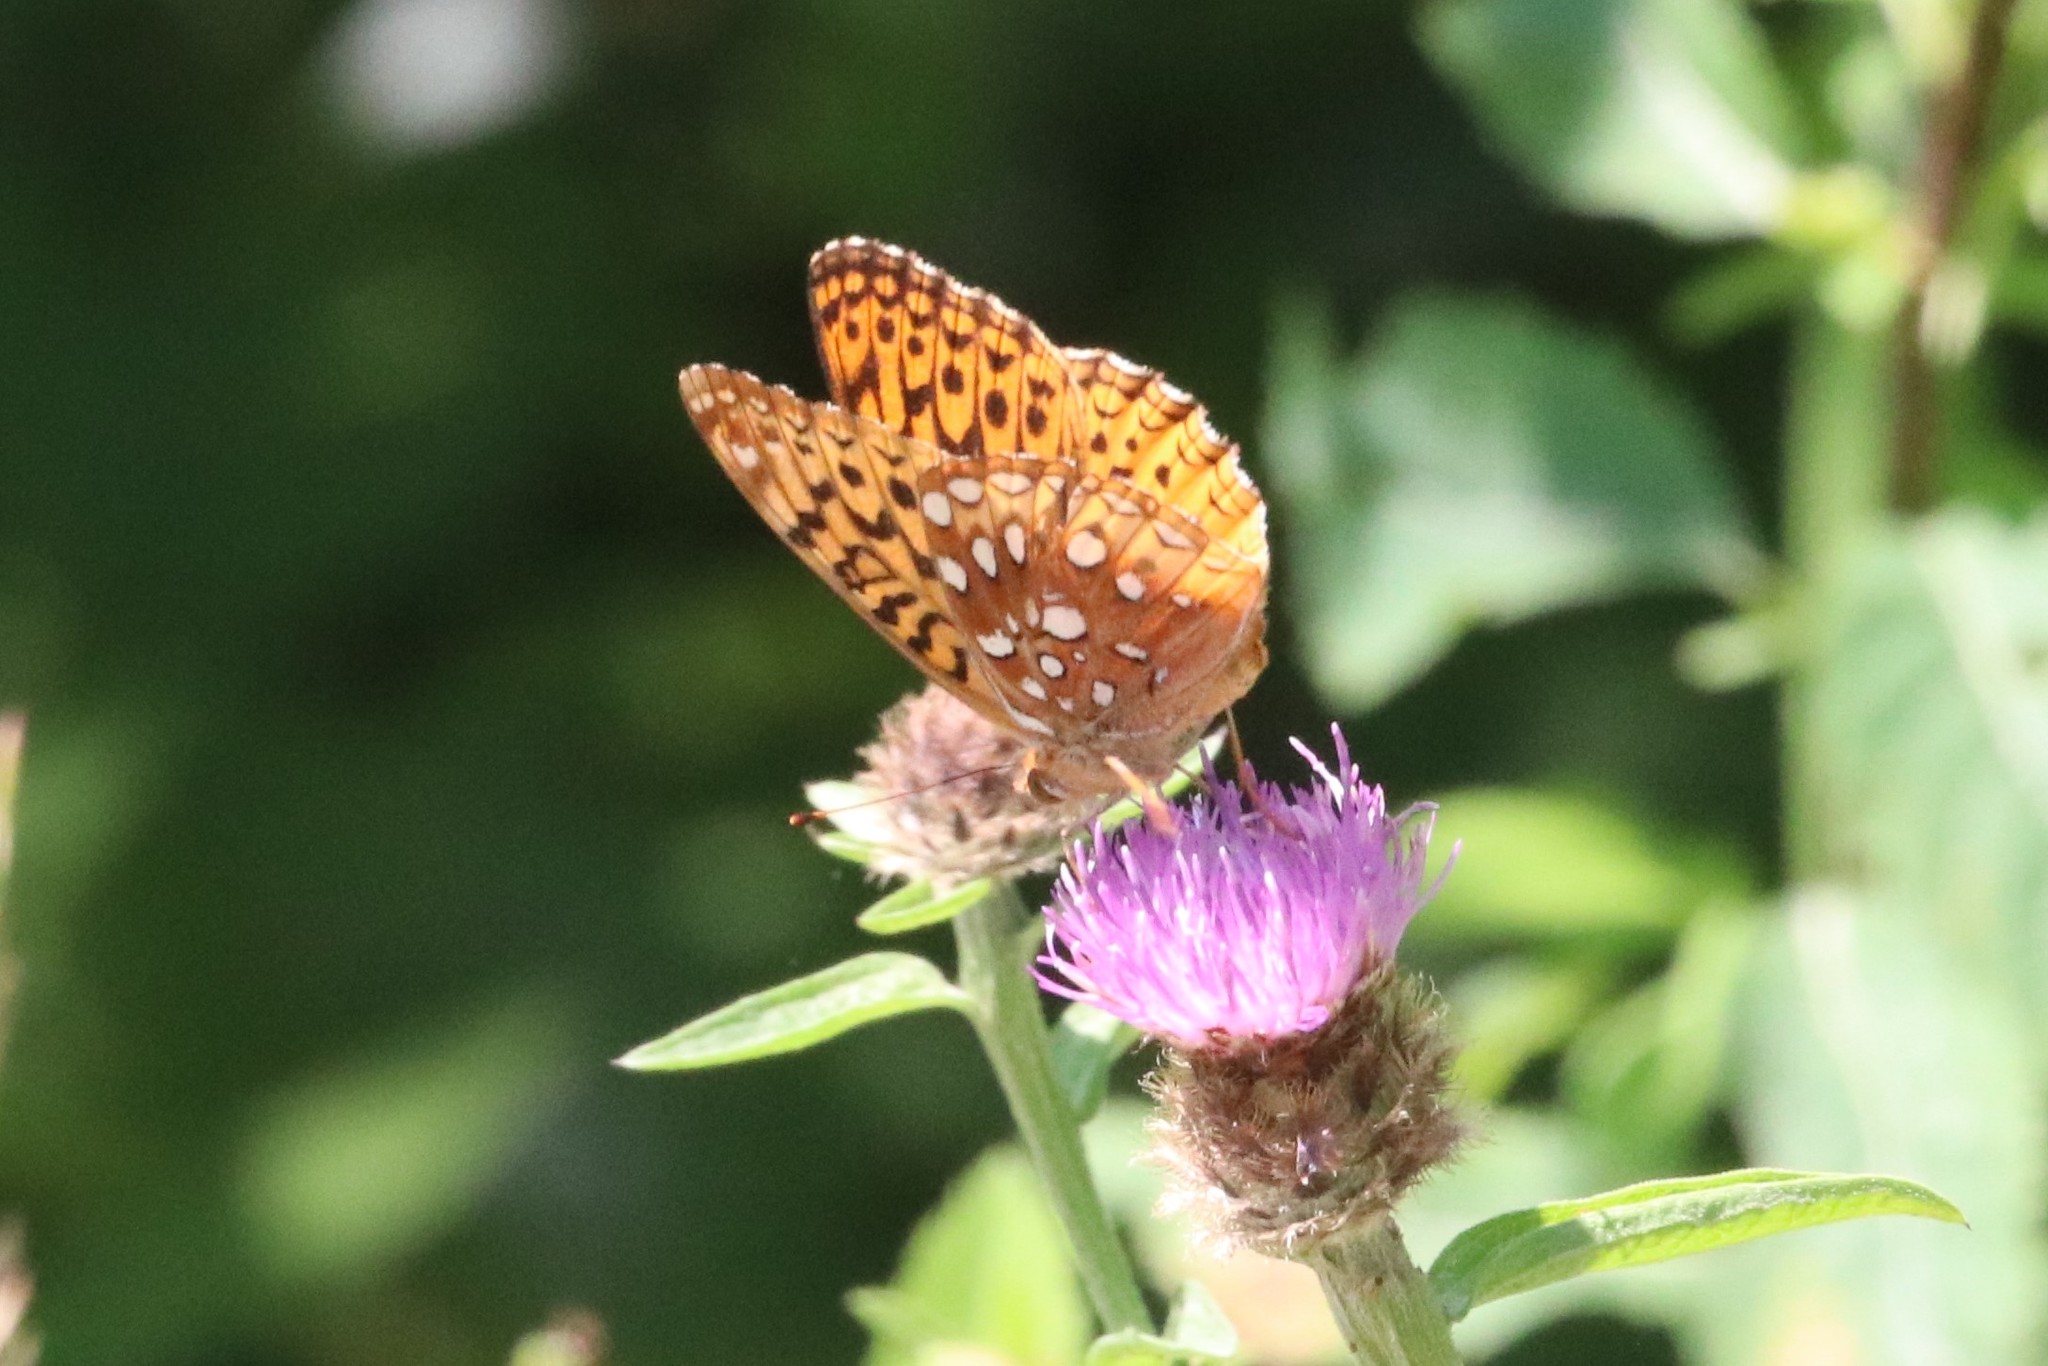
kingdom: Animalia
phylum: Arthropoda
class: Insecta
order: Lepidoptera
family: Nymphalidae
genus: Speyeria
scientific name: Speyeria cybele
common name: Great spangled fritillary
